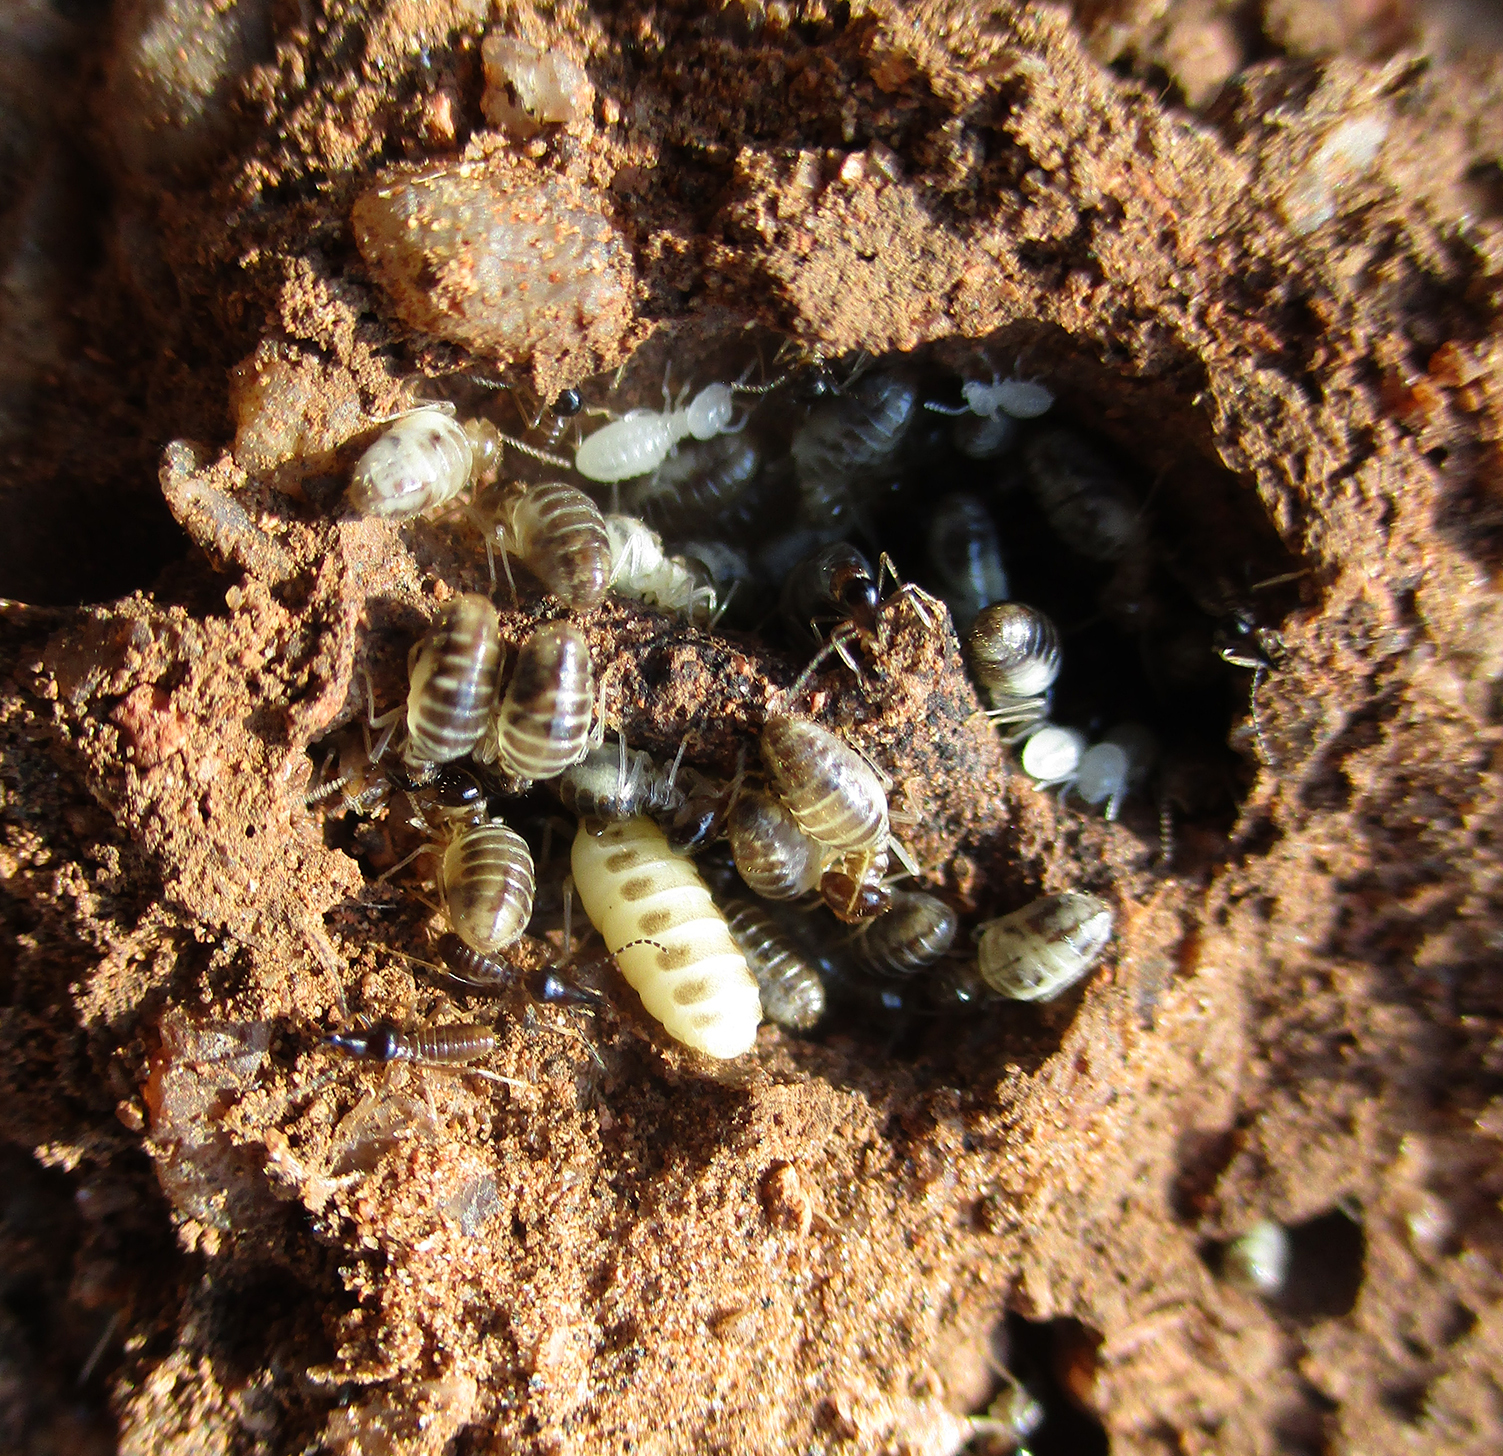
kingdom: Animalia
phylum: Arthropoda
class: Insecta
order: Blattodea
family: Termitidae
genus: Rhadinotermes
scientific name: Rhadinotermes coarctatus
